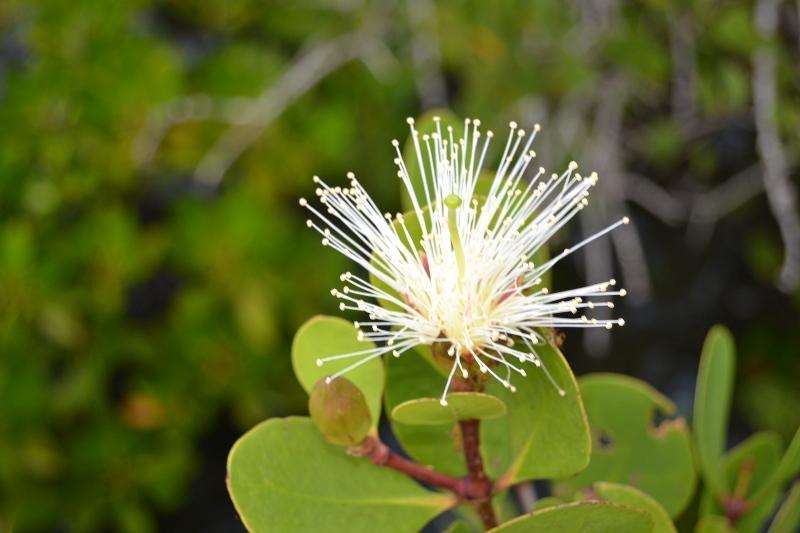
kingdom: Plantae
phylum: Tracheophyta
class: Magnoliopsida
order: Myrtales
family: Lythraceae
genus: Sonneratia
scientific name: Sonneratia alba
